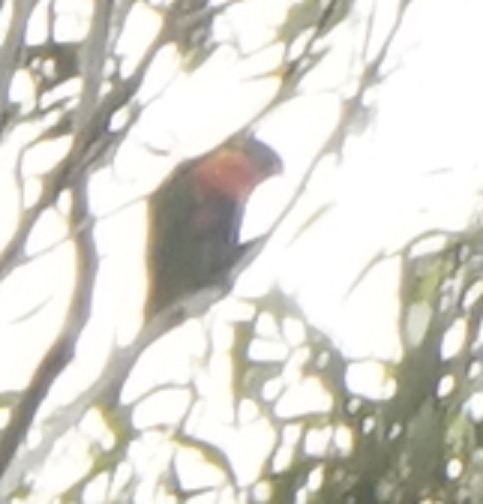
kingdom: Animalia
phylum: Chordata
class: Aves
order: Psittaciformes
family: Psittacidae
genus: Trichoglossus
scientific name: Trichoglossus haematodus
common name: Coconut lorikeet
